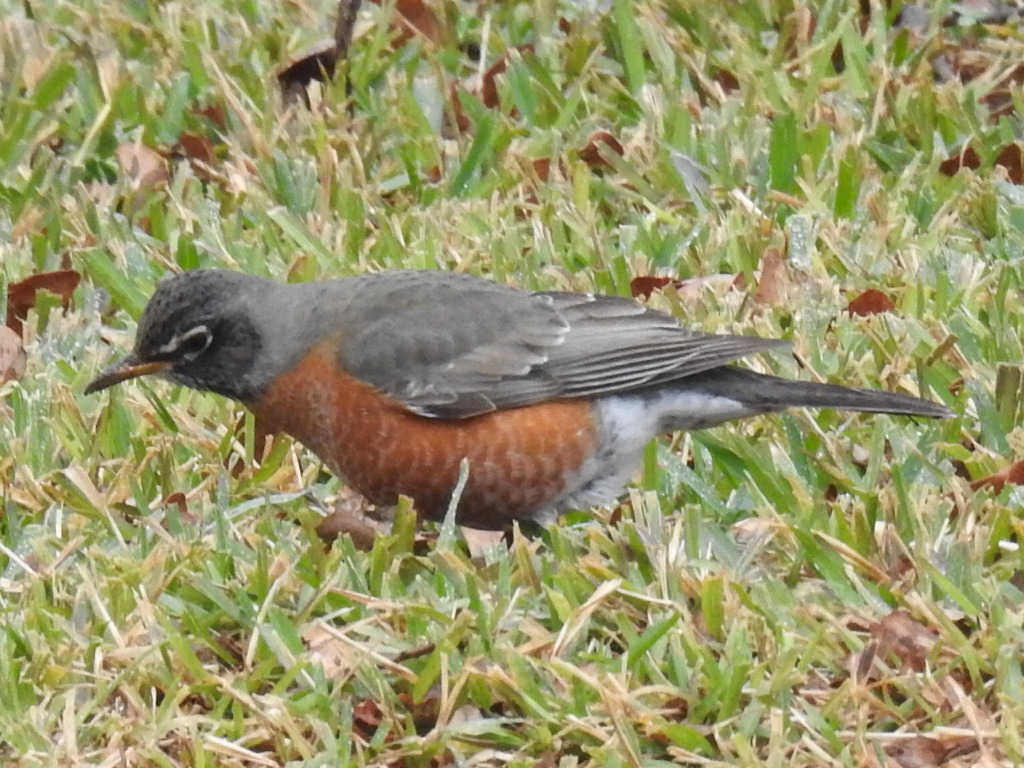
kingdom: Animalia
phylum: Chordata
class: Aves
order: Passeriformes
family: Turdidae
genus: Turdus
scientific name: Turdus migratorius
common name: American robin
